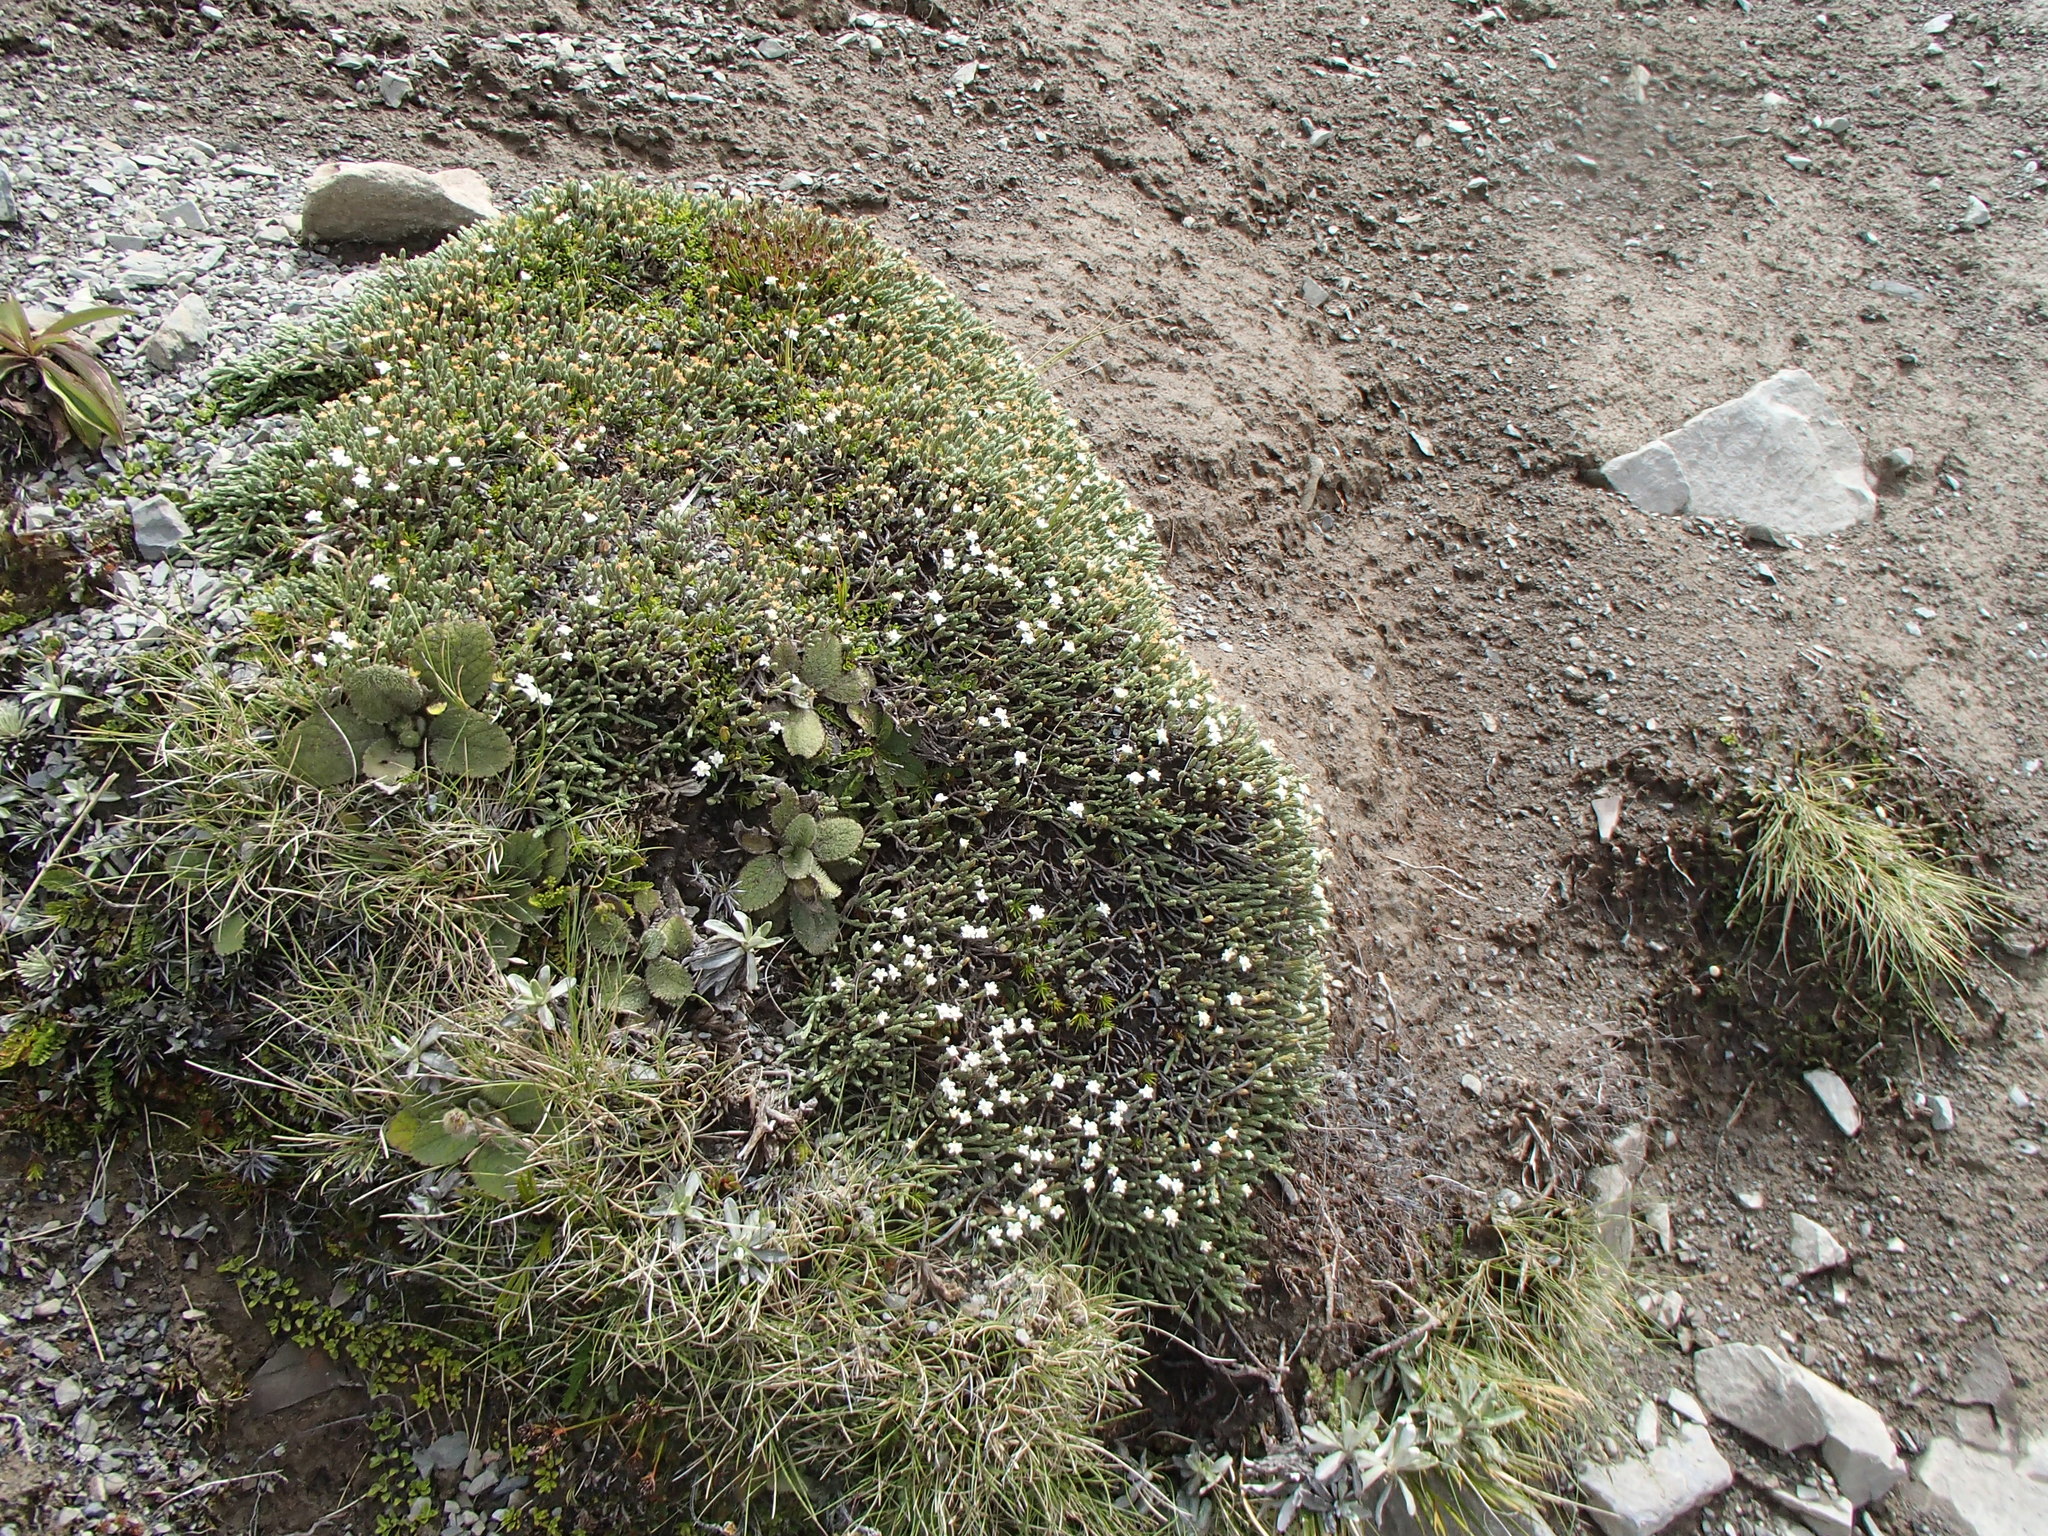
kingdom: Plantae
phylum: Tracheophyta
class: Magnoliopsida
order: Malvales
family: Thymelaeaceae
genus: Kelleria
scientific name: Kelleria dieffenbachii
